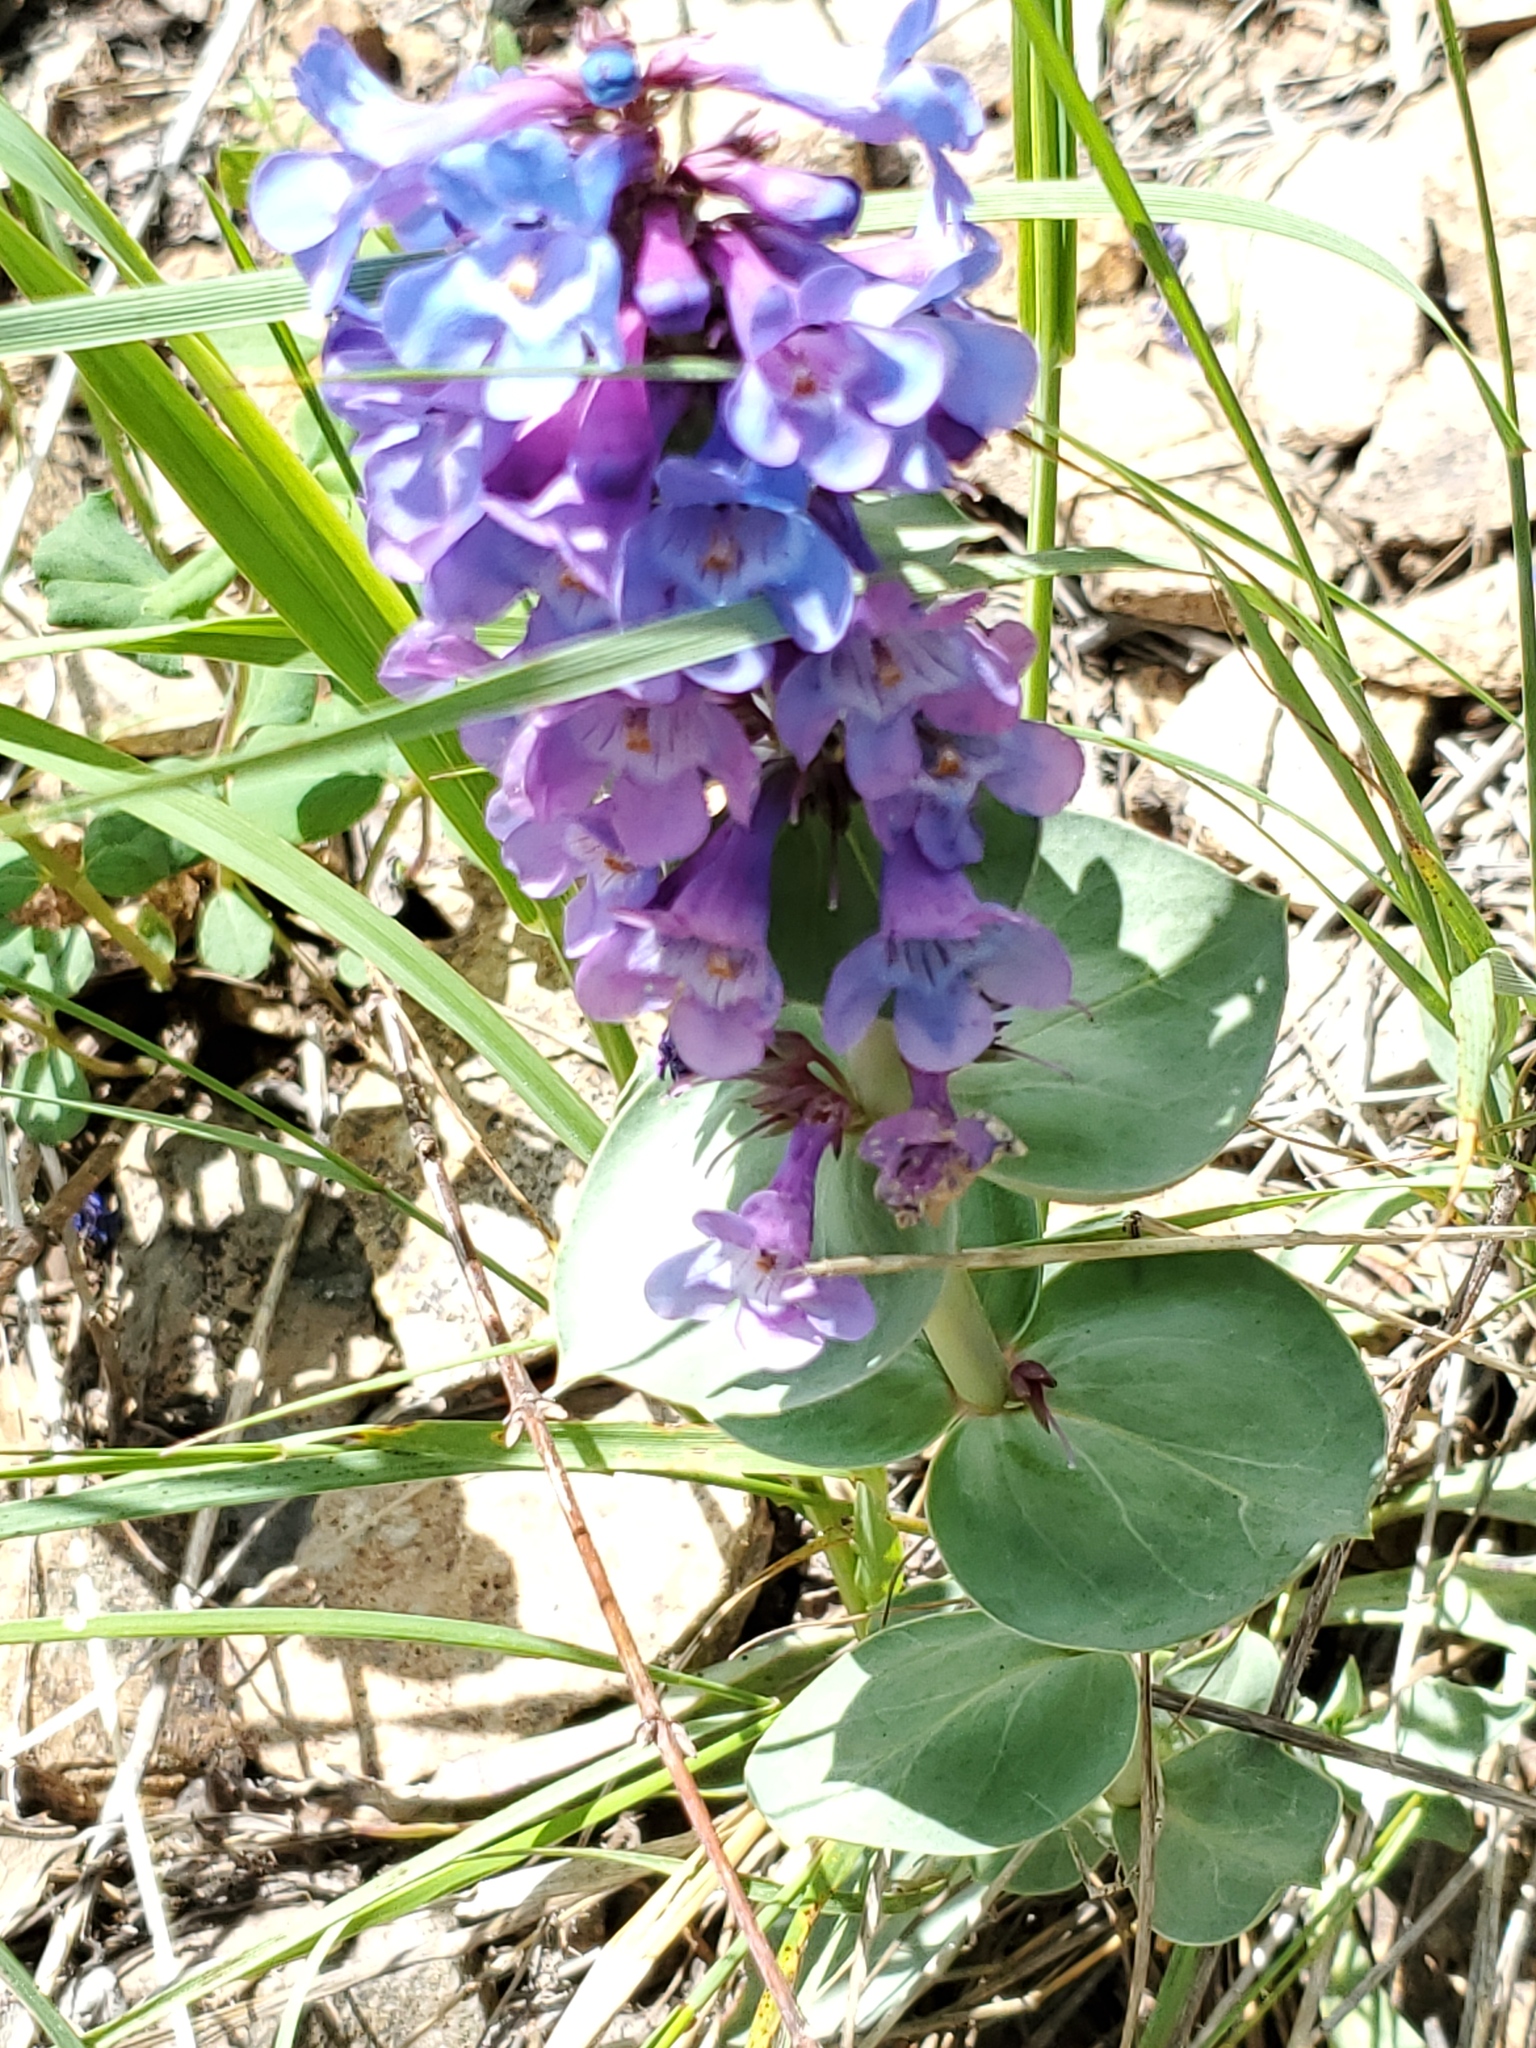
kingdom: Plantae
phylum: Tracheophyta
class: Magnoliopsida
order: Lamiales
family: Plantaginaceae
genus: Penstemon
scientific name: Penstemon nitidus
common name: Shining penstemon
